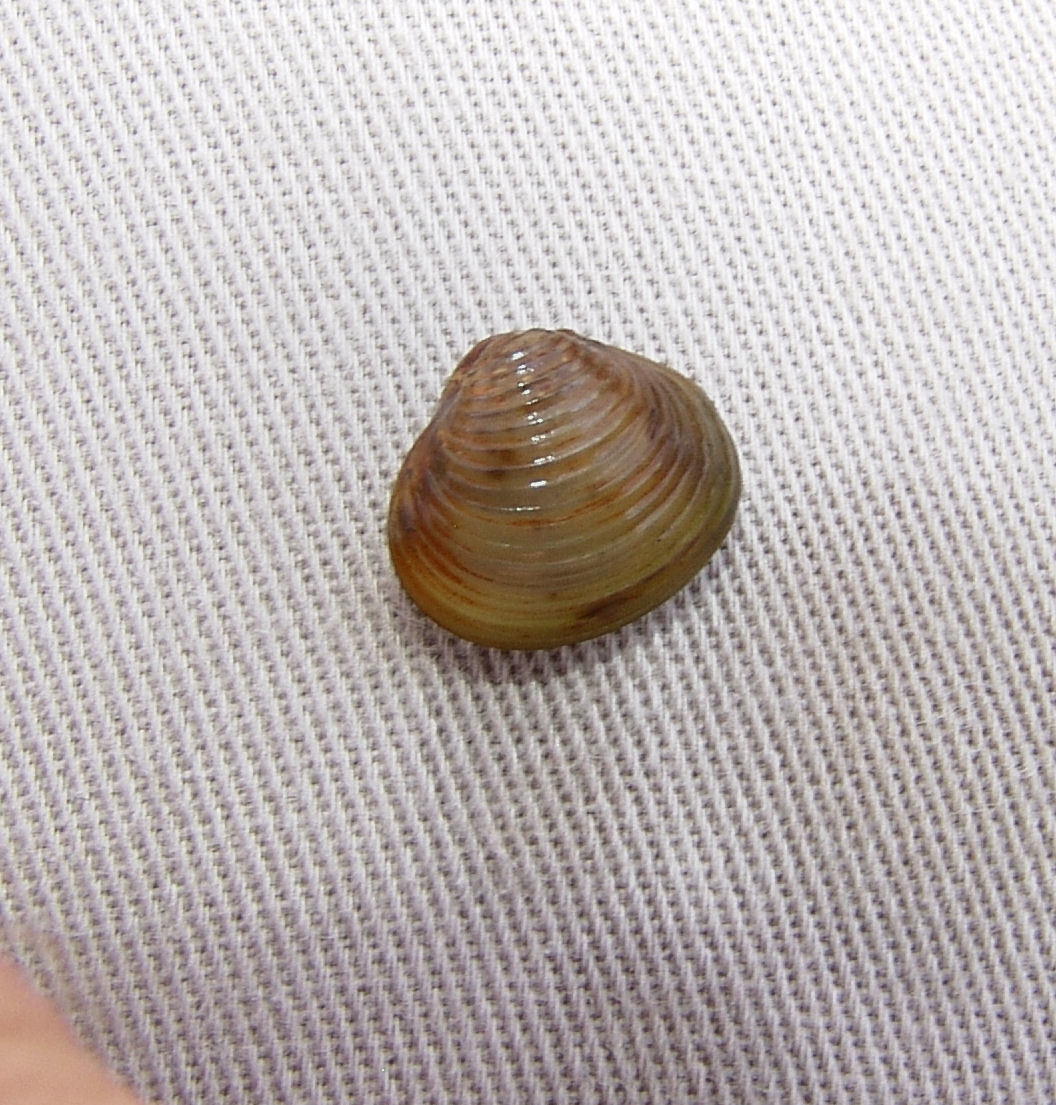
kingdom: Animalia
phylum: Mollusca
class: Bivalvia
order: Venerida
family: Cyrenidae
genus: Corbicula
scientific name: Corbicula fluminea
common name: Asian clam
